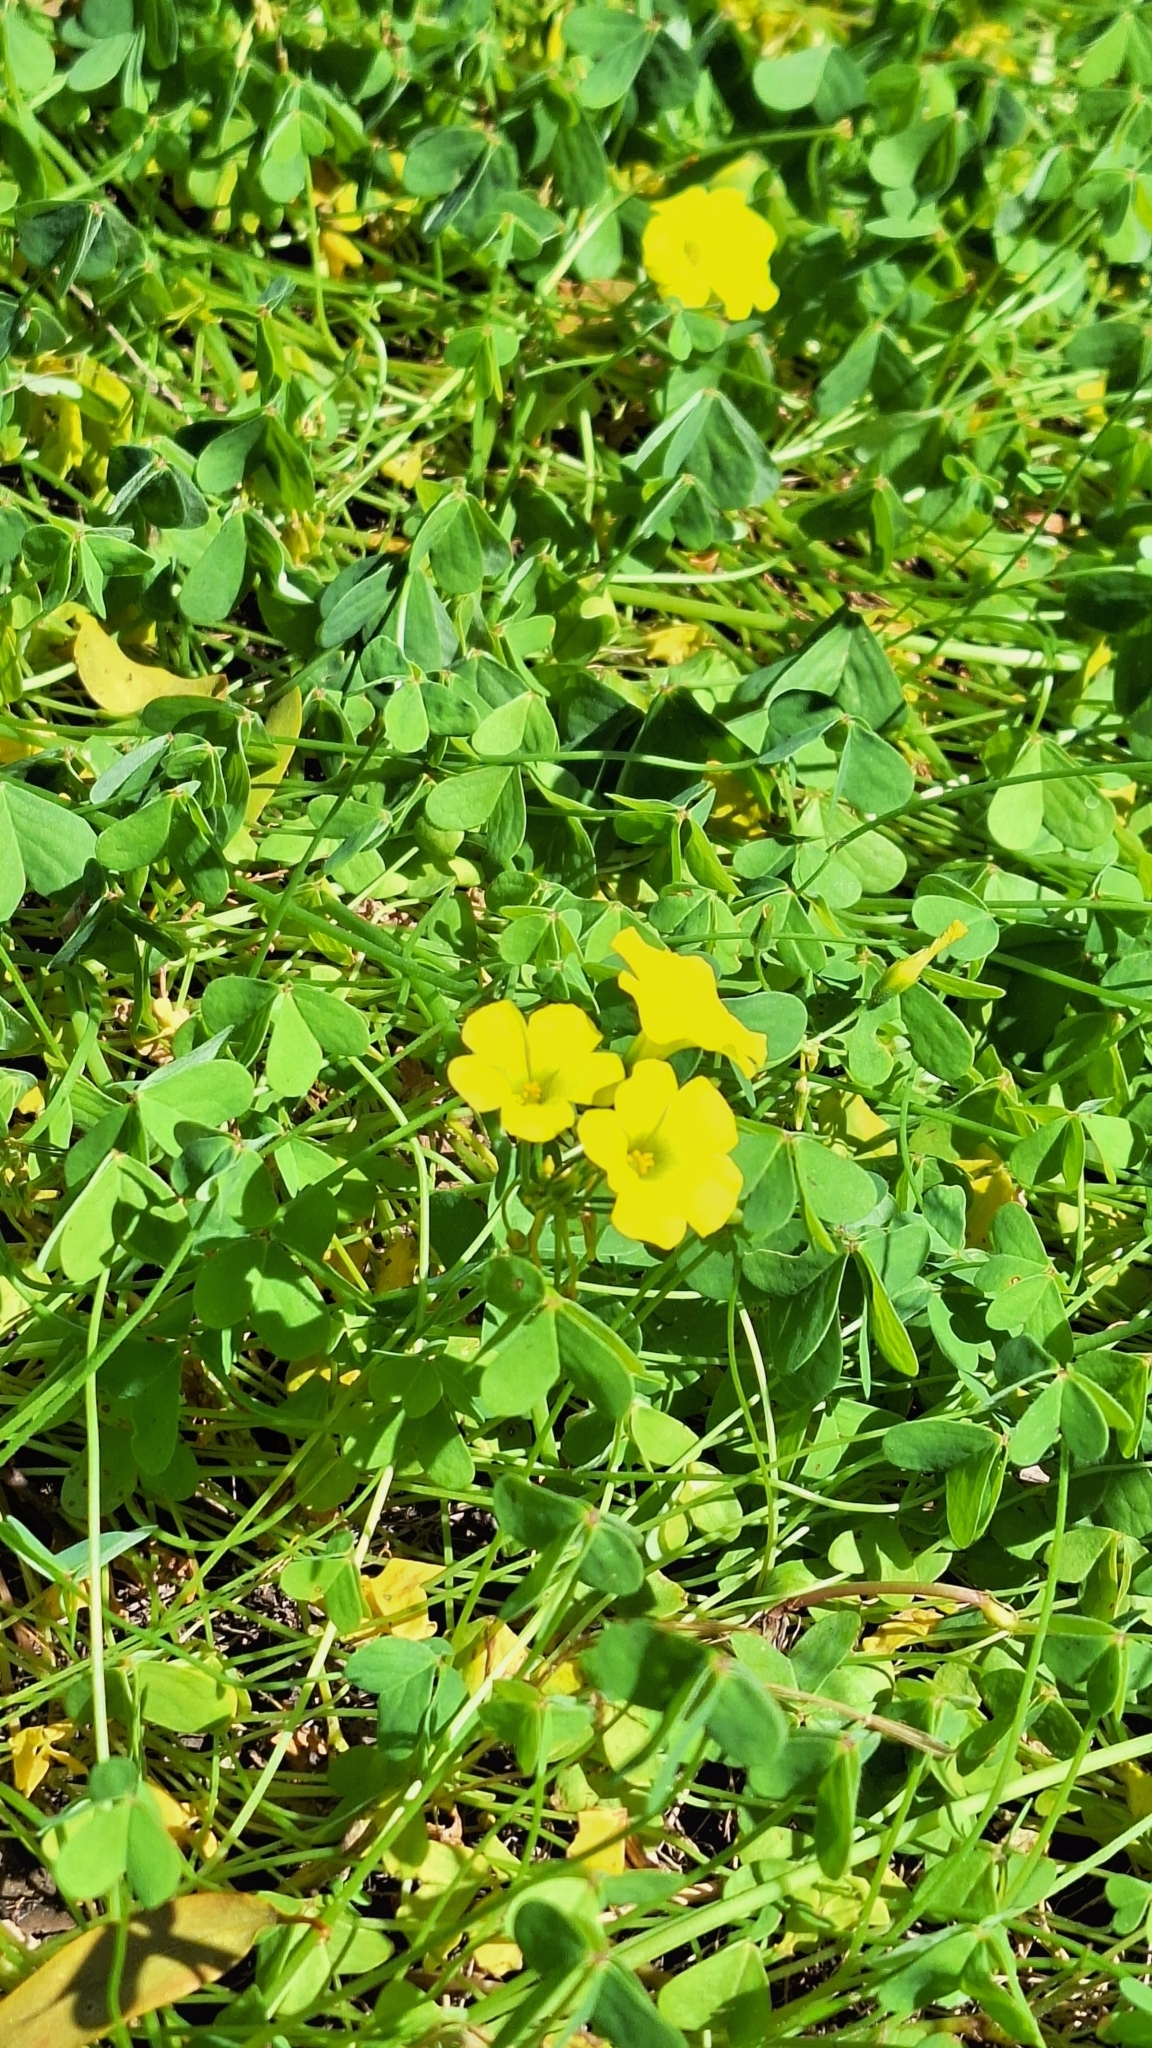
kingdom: Plantae
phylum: Tracheophyta
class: Magnoliopsida
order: Oxalidales
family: Oxalidaceae
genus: Oxalis
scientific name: Oxalis pes-caprae
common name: Bermuda-buttercup
